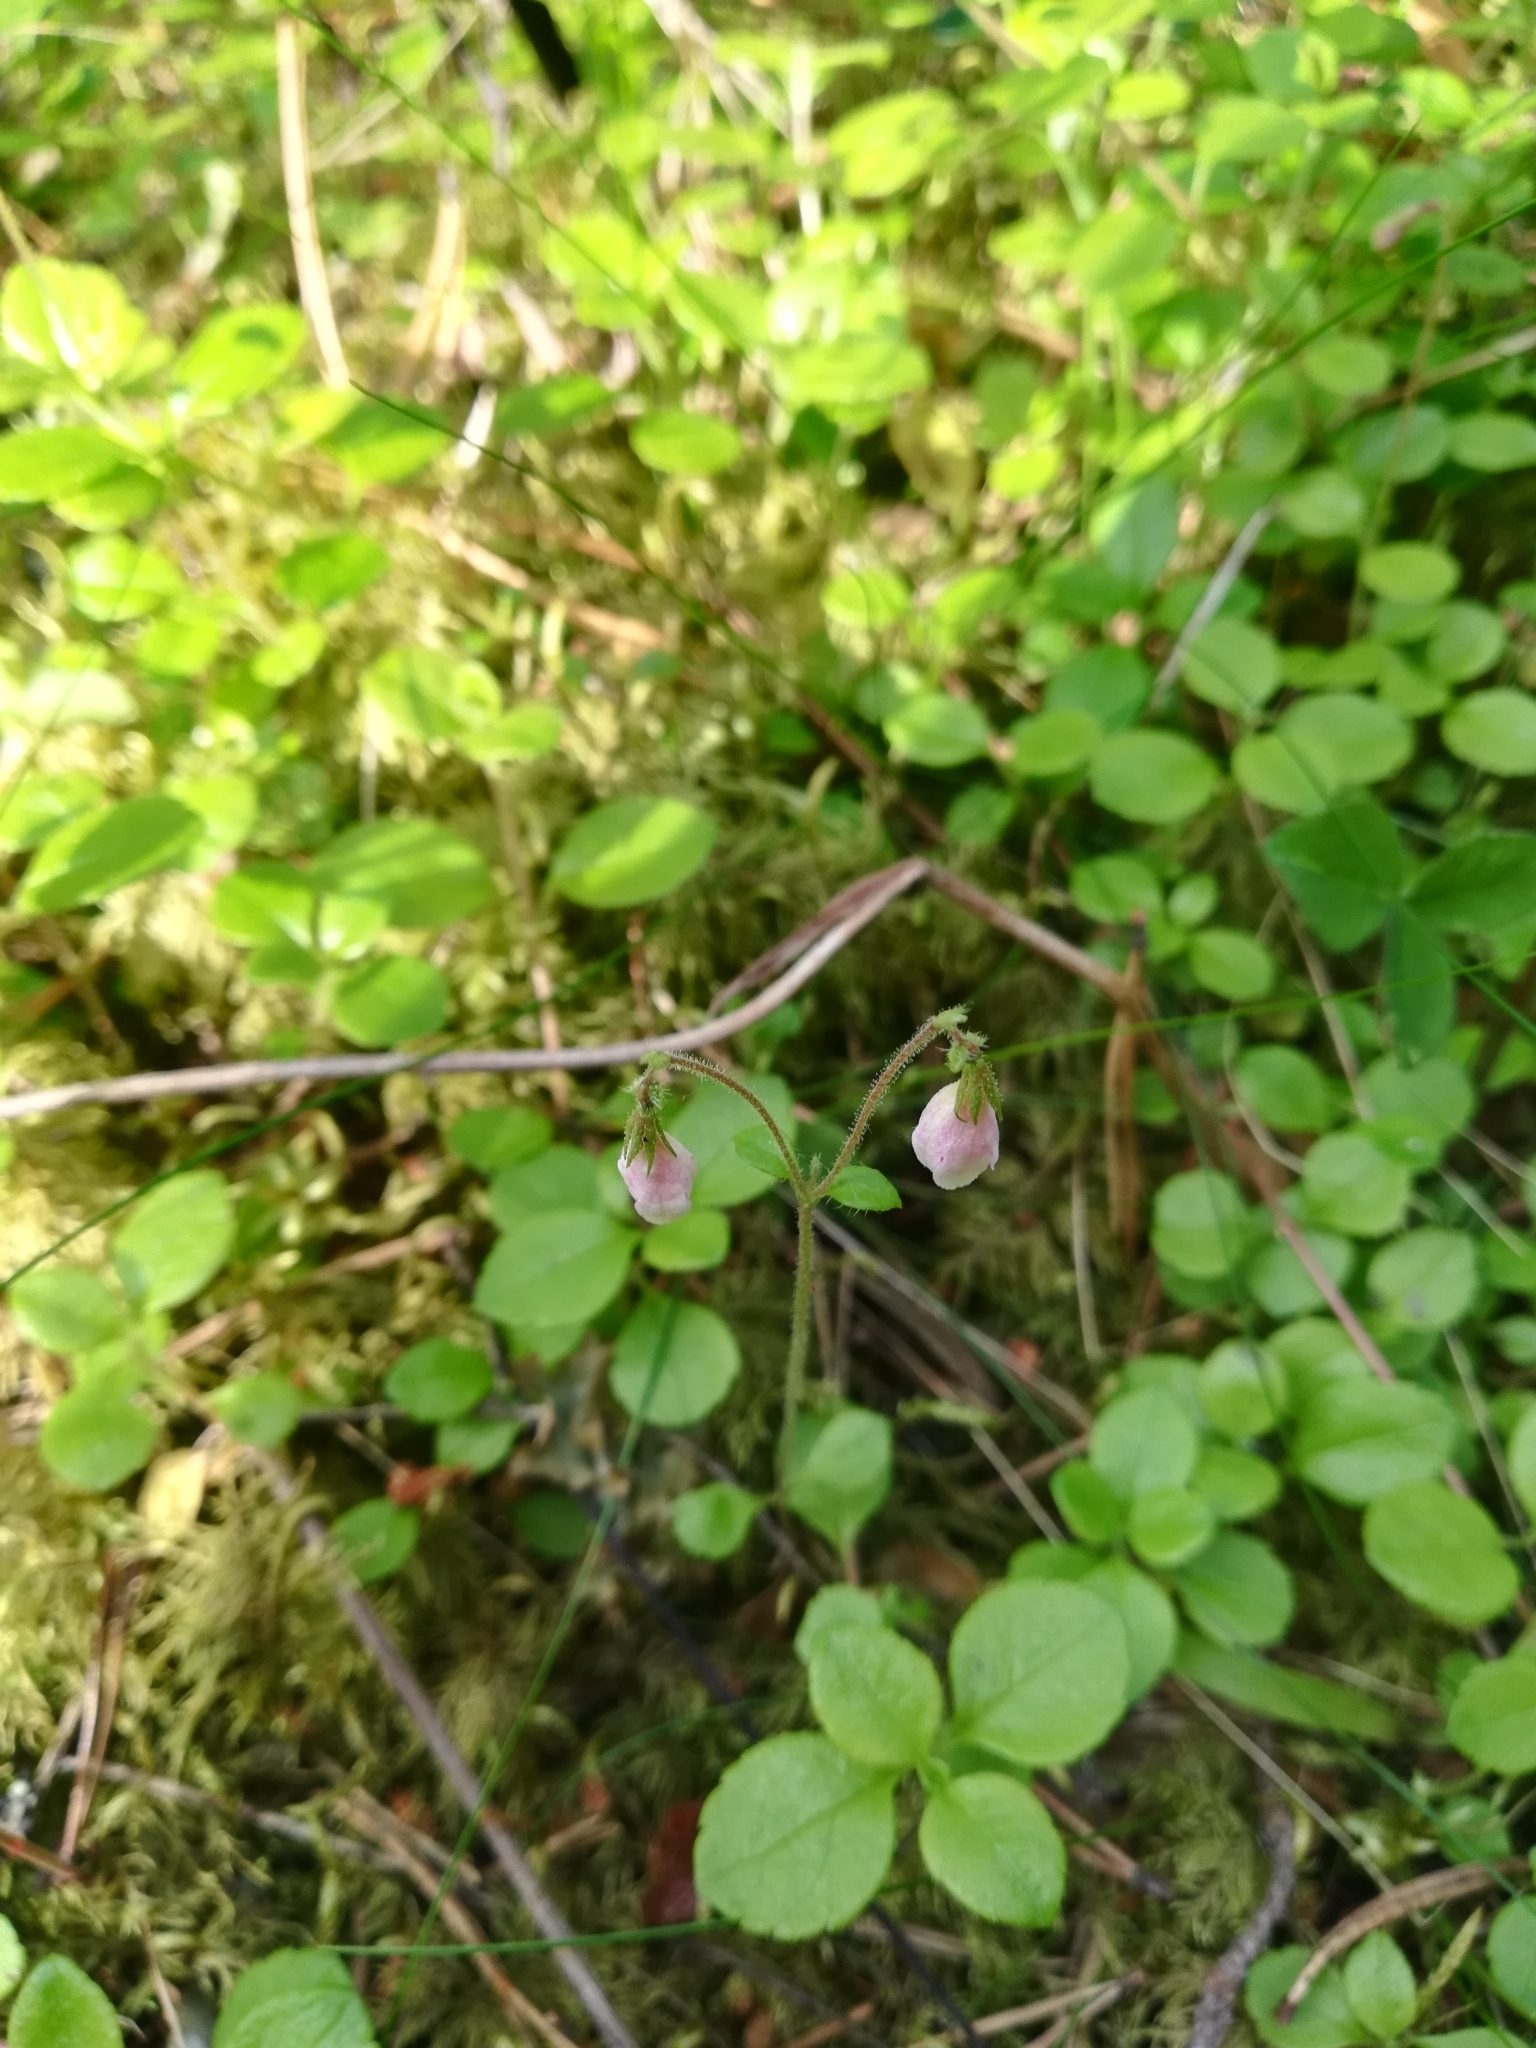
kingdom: Plantae
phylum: Tracheophyta
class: Magnoliopsida
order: Dipsacales
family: Caprifoliaceae
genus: Linnaea
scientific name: Linnaea borealis
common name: Twinflower
